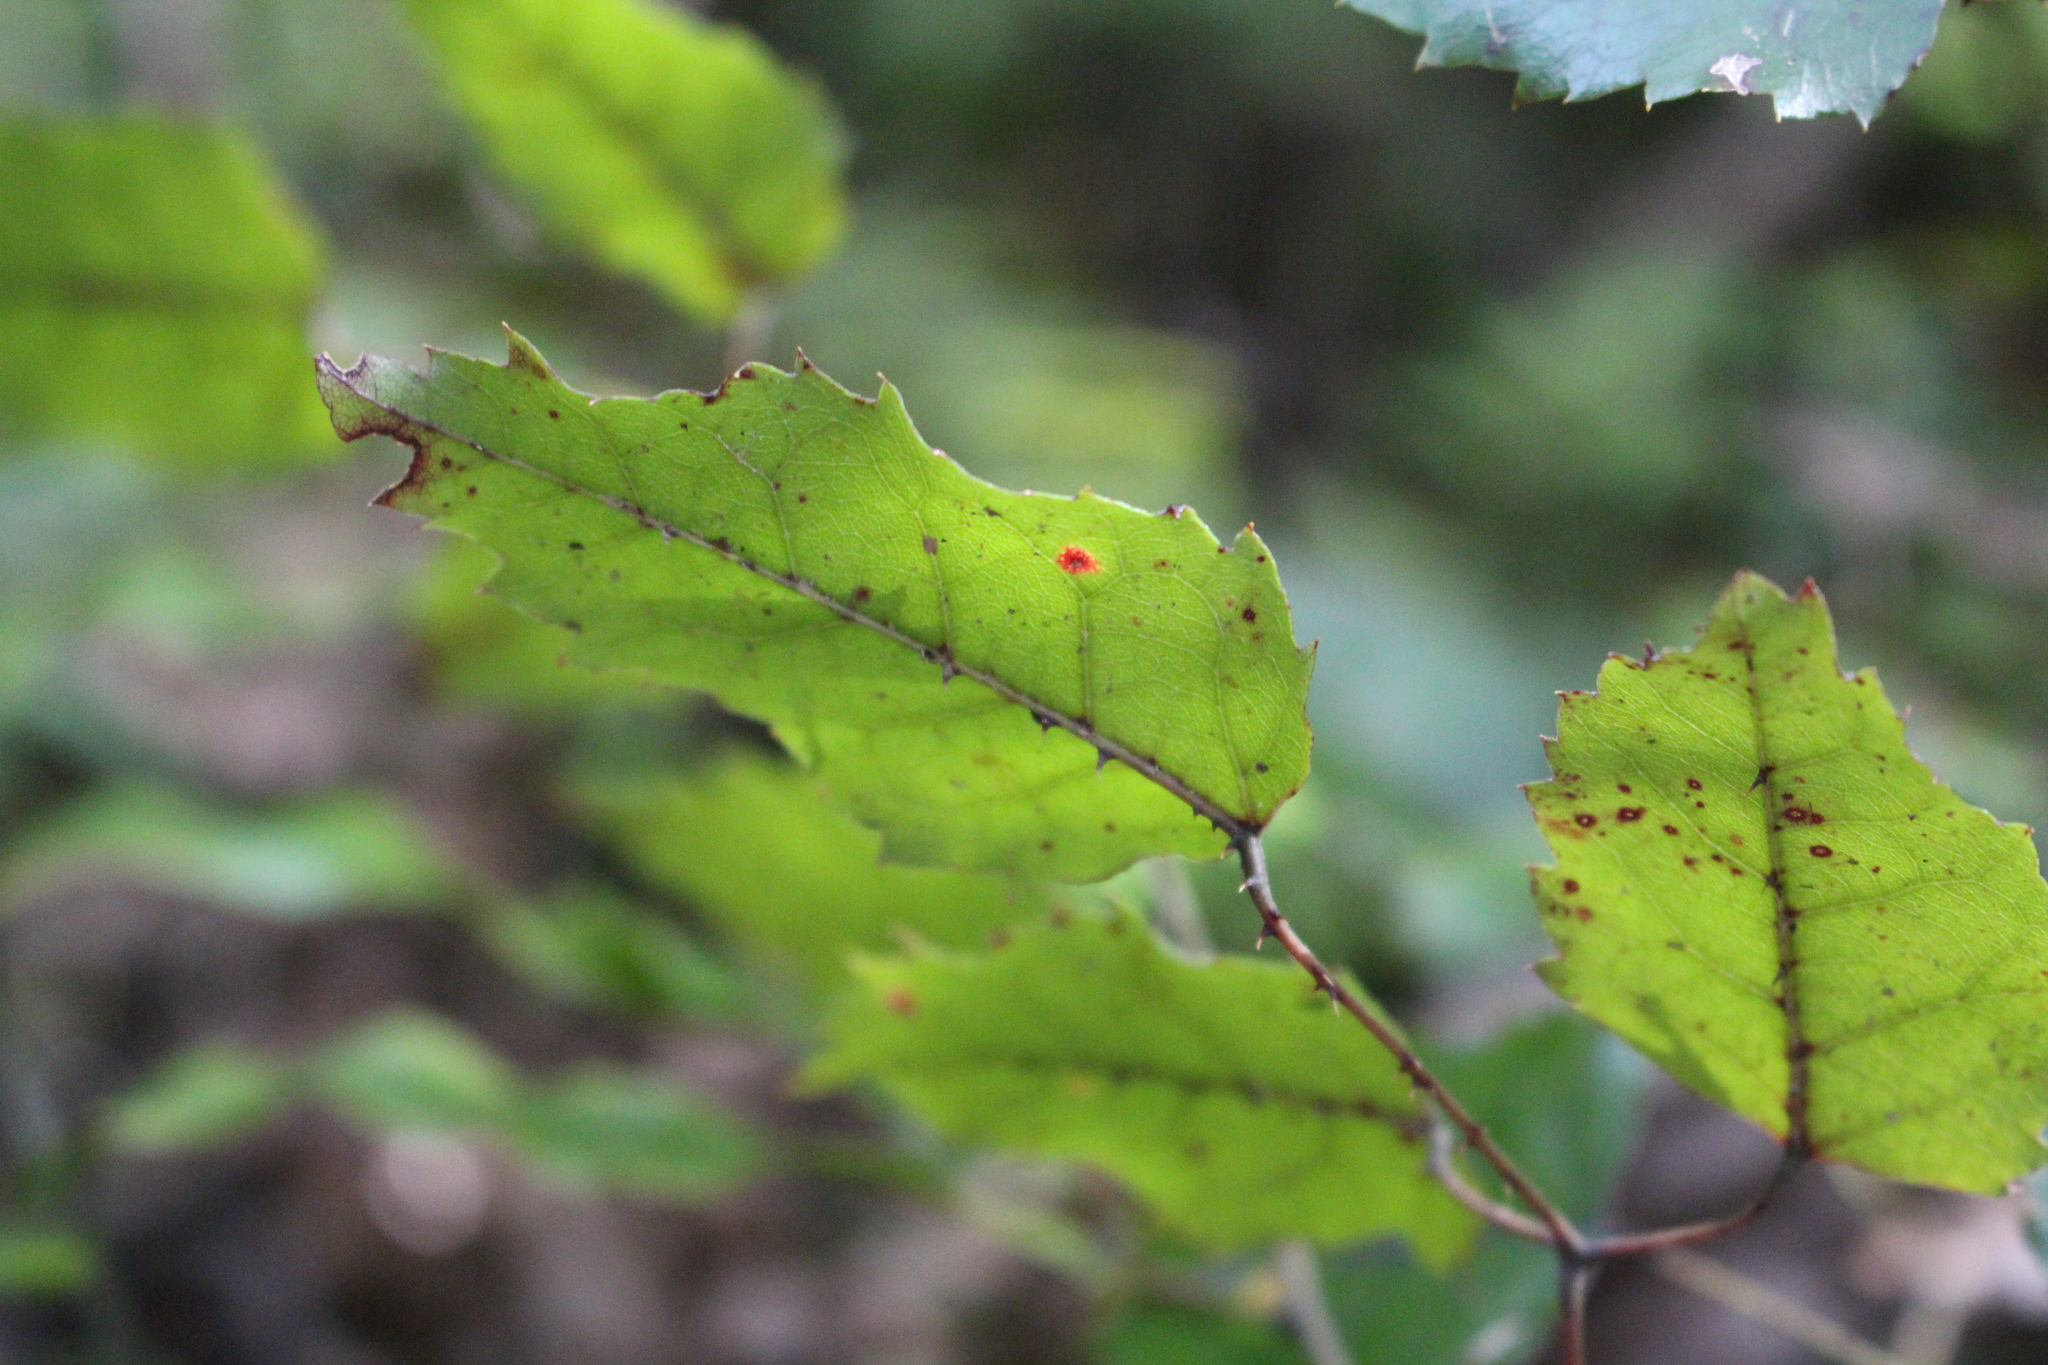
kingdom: Plantae
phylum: Tracheophyta
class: Magnoliopsida
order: Rosales
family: Rosaceae
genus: Rubus
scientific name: Rubus cissoides
